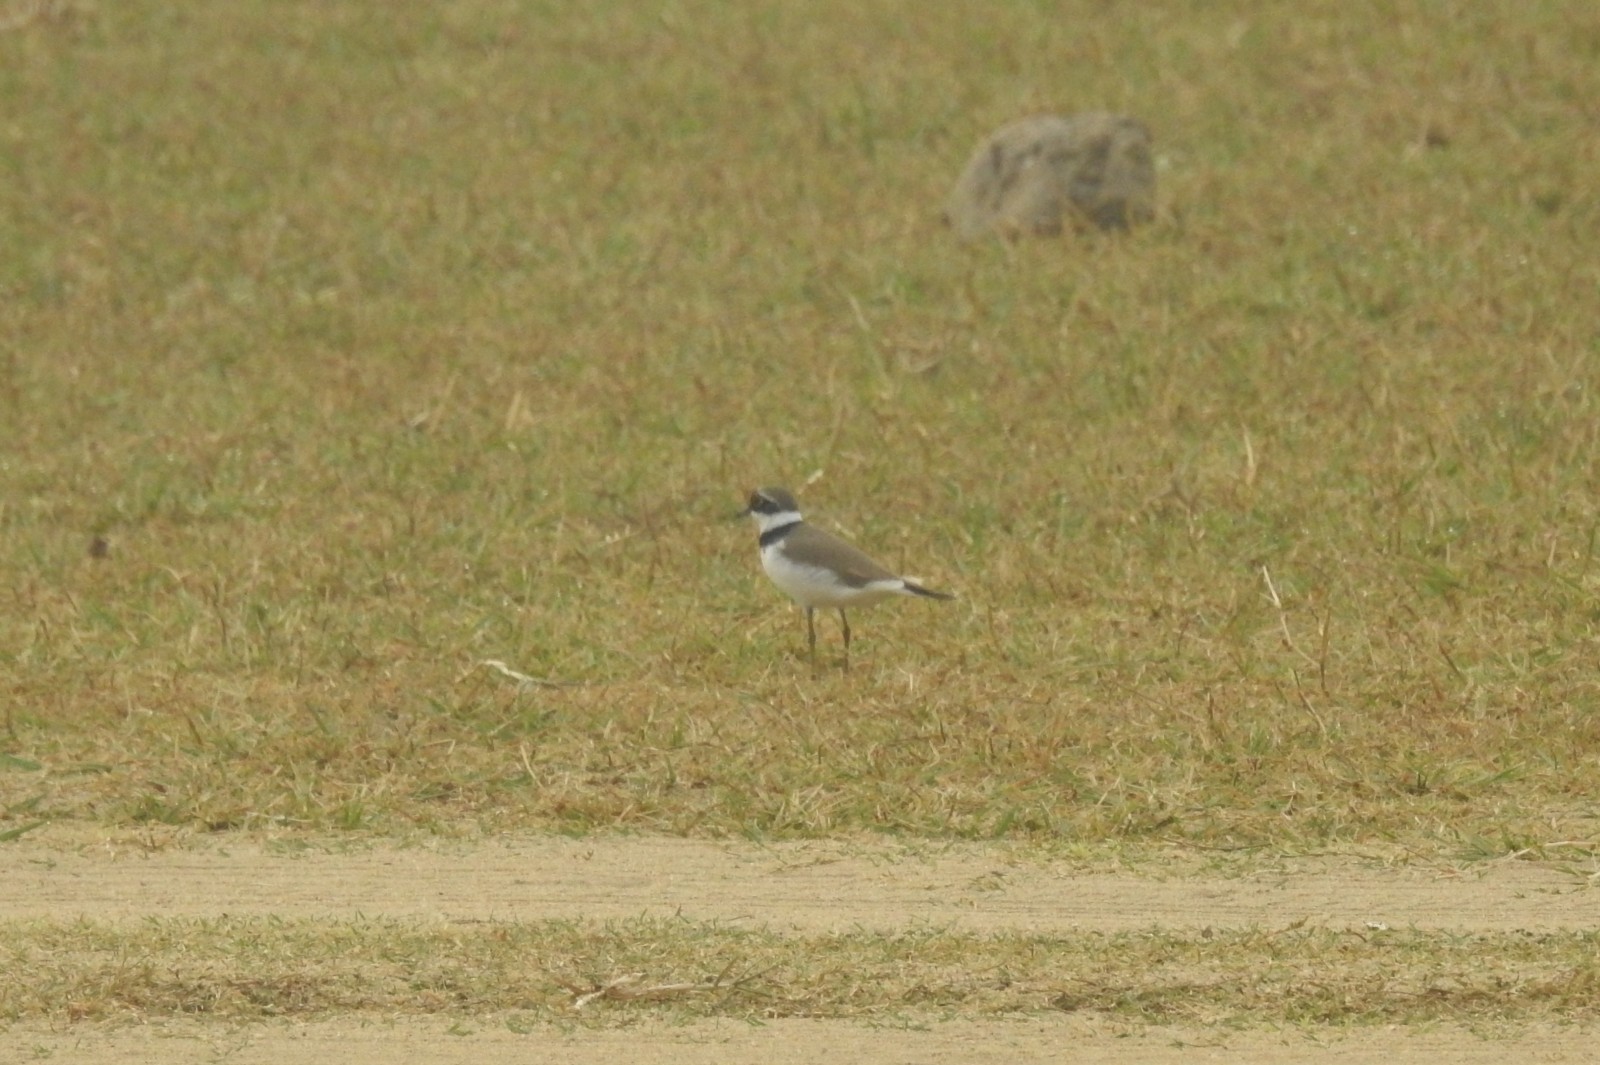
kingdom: Animalia
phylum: Chordata
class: Aves
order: Charadriiformes
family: Charadriidae
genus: Charadrius
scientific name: Charadrius dubius
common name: Little ringed plover
